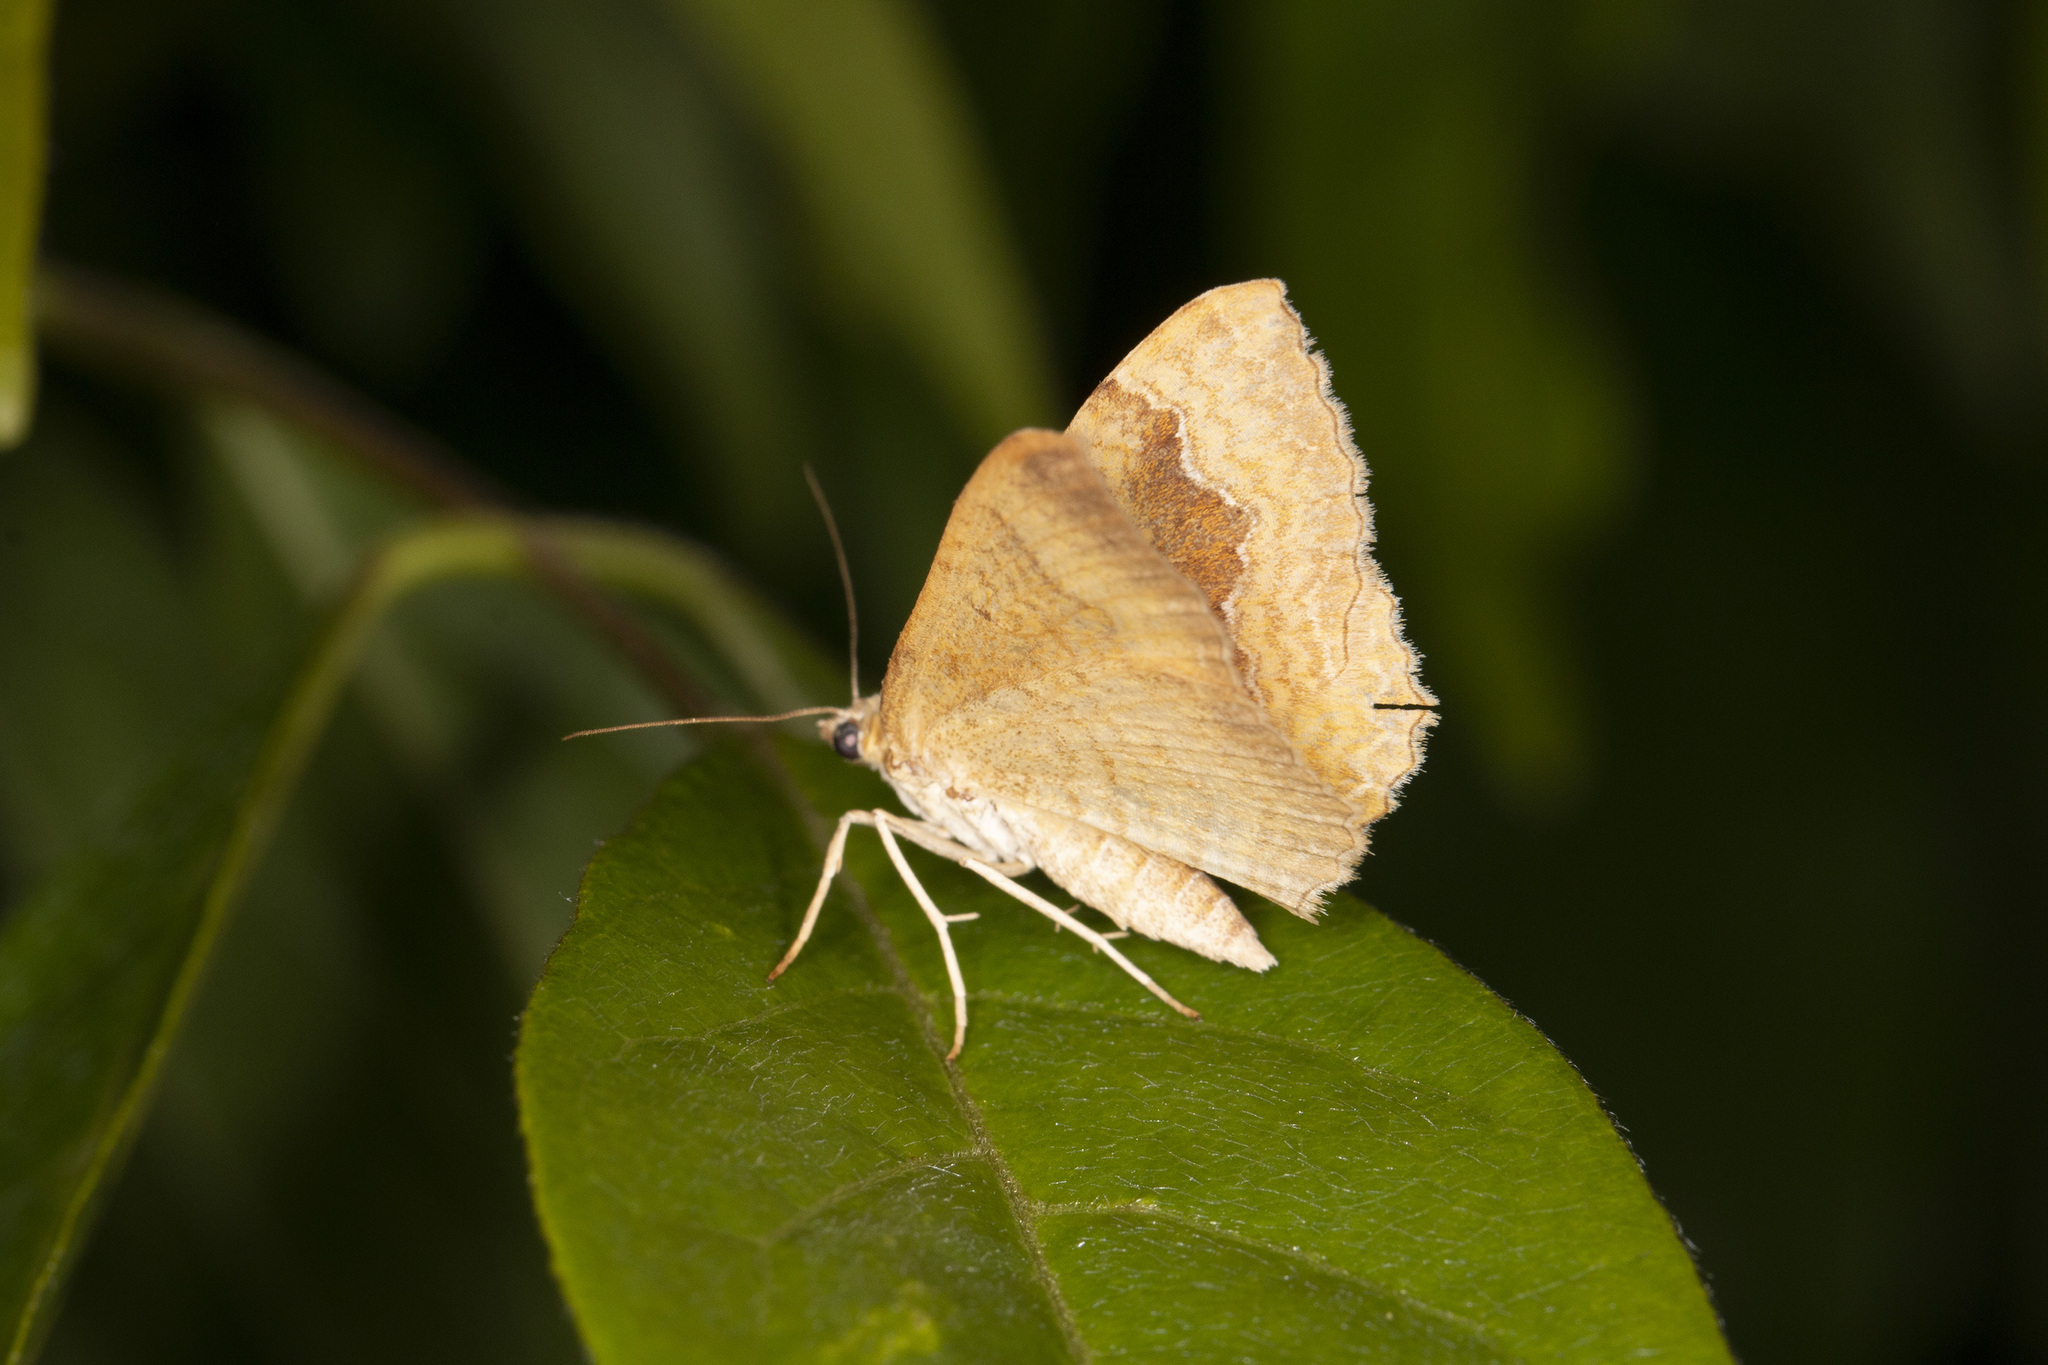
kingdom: Animalia
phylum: Arthropoda
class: Insecta
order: Lepidoptera
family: Geometridae
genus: Camptogramma
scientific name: Camptogramma bilineata
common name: Yellow shell
